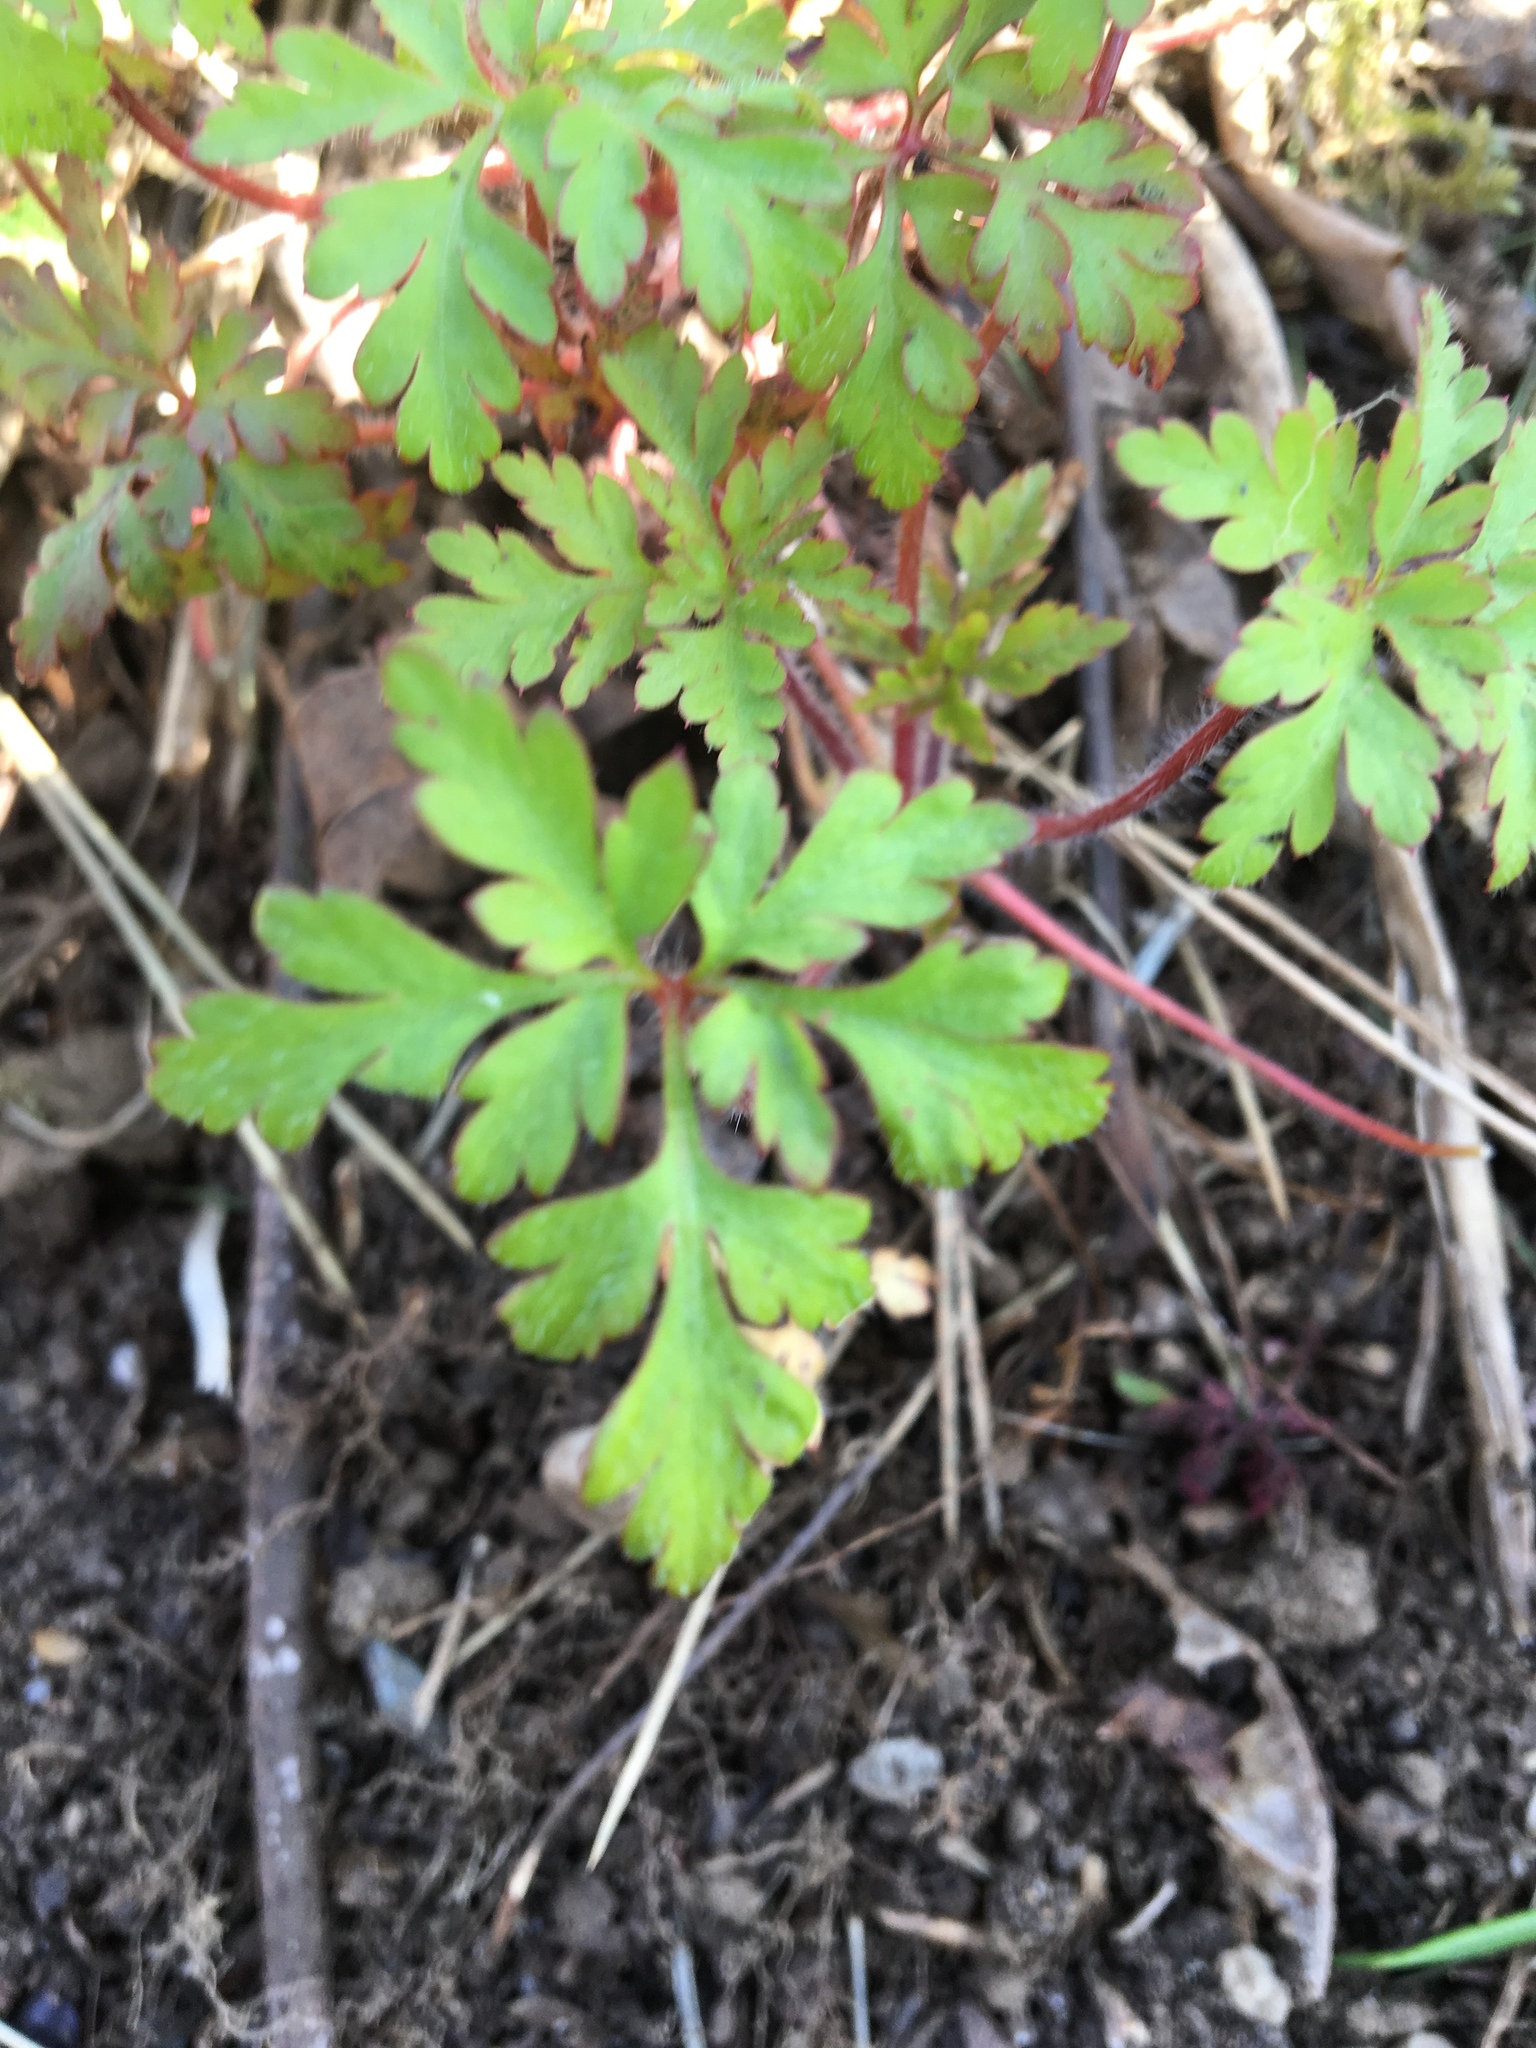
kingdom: Plantae
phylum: Tracheophyta
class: Magnoliopsida
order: Geraniales
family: Geraniaceae
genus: Geranium
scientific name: Geranium robertianum
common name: Herb-robert
